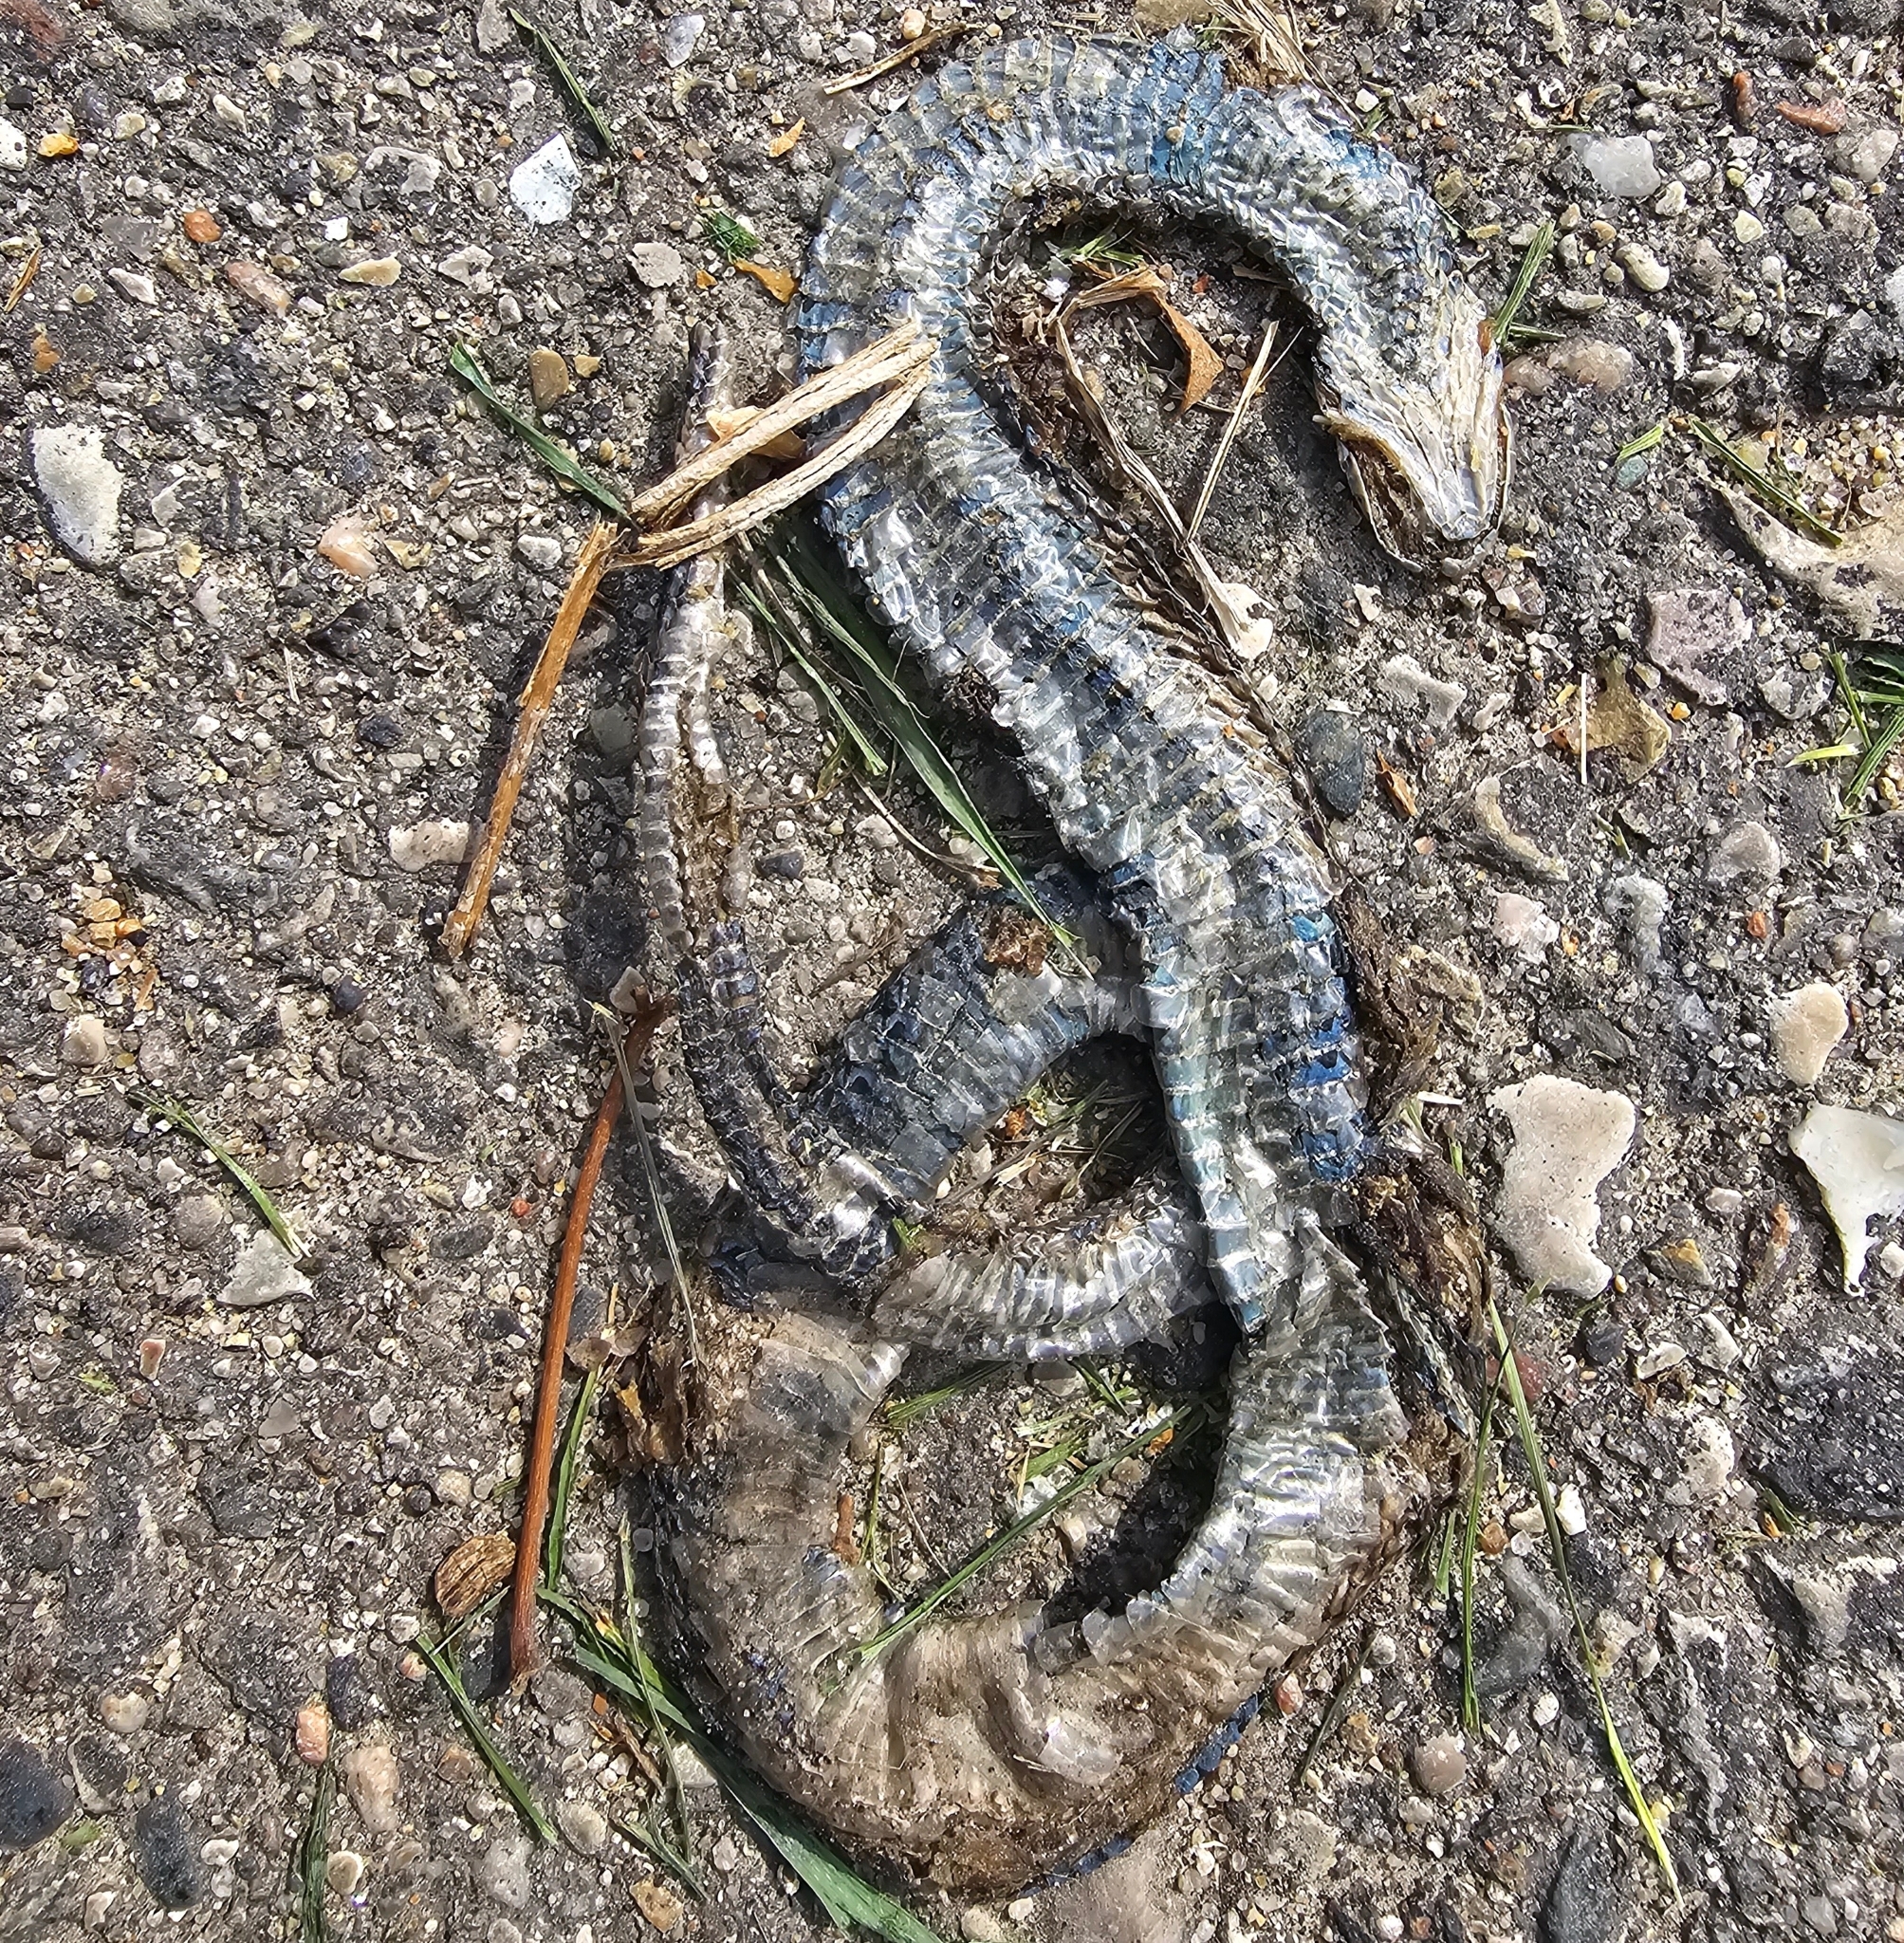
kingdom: Animalia
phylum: Chordata
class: Squamata
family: Colubridae
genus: Thamnophis
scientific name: Thamnophis radix
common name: Plains garter snake
